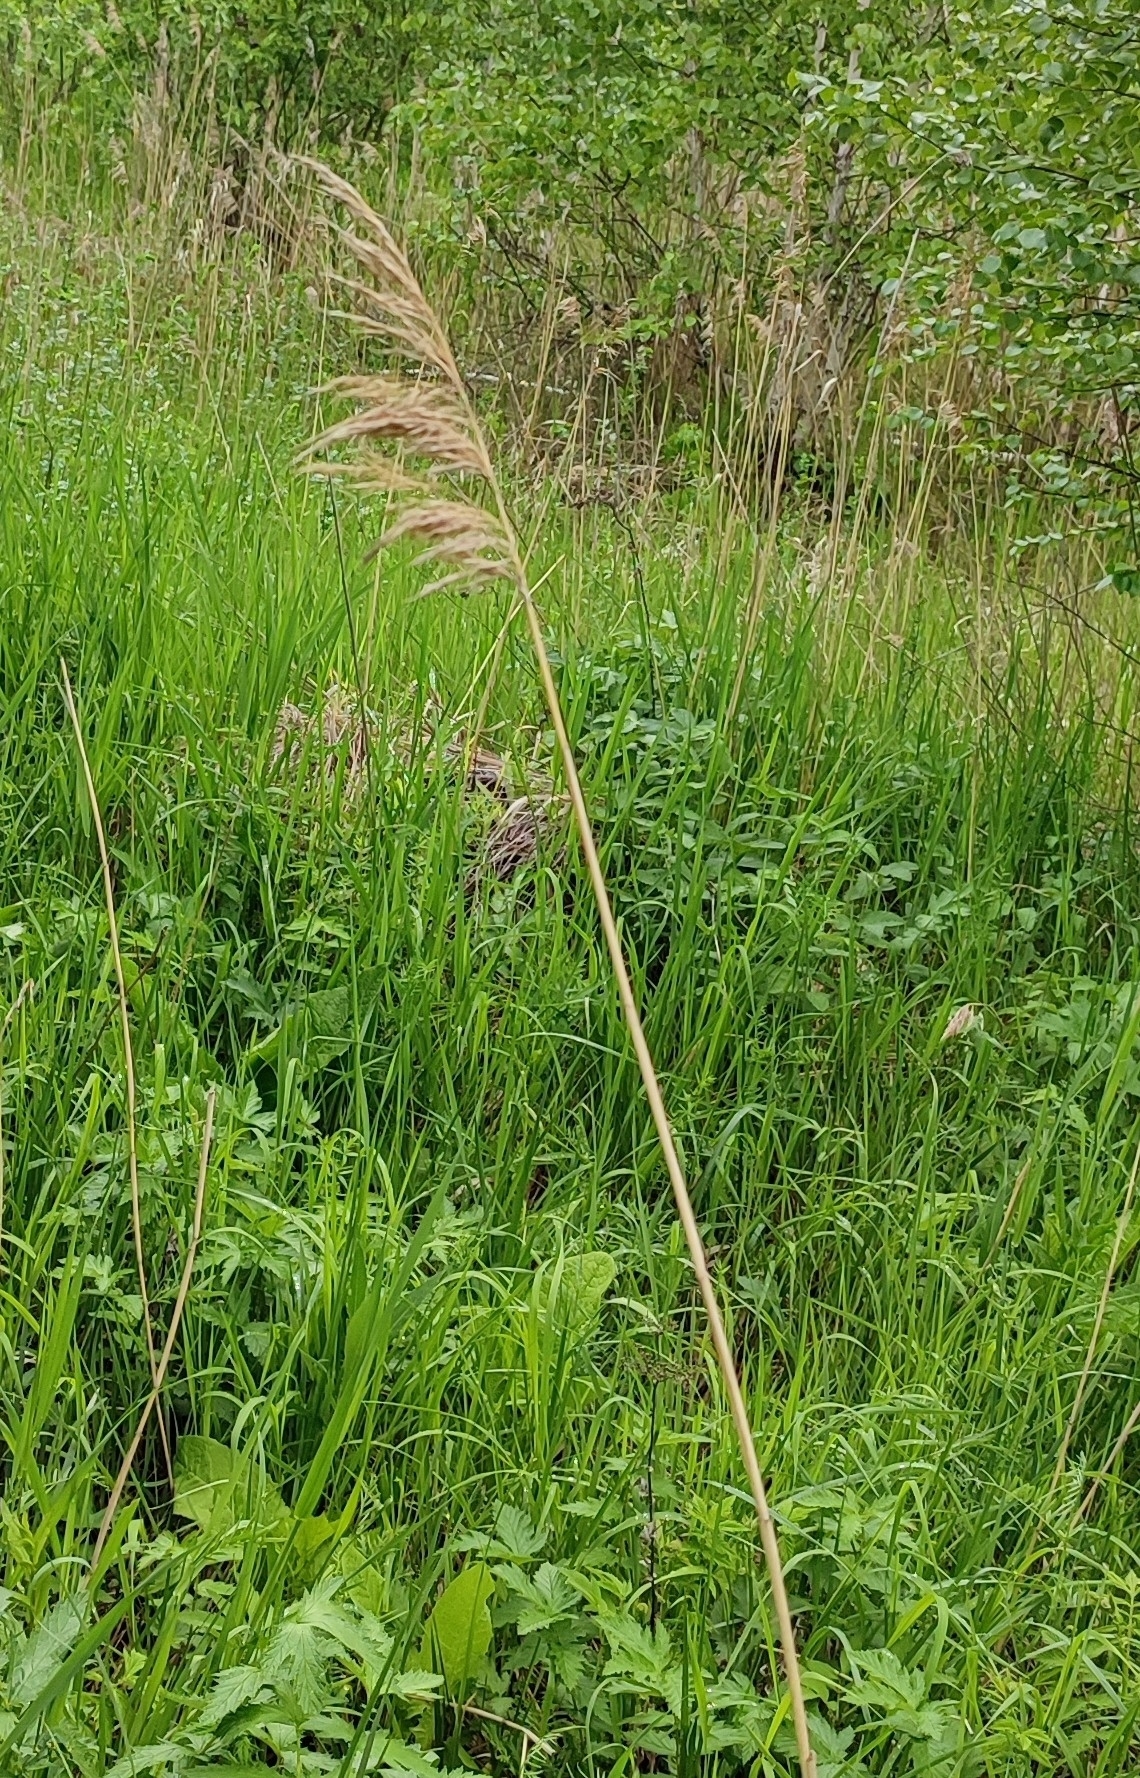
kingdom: Plantae
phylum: Tracheophyta
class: Liliopsida
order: Poales
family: Poaceae
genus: Phragmites
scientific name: Phragmites australis
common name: Common reed
